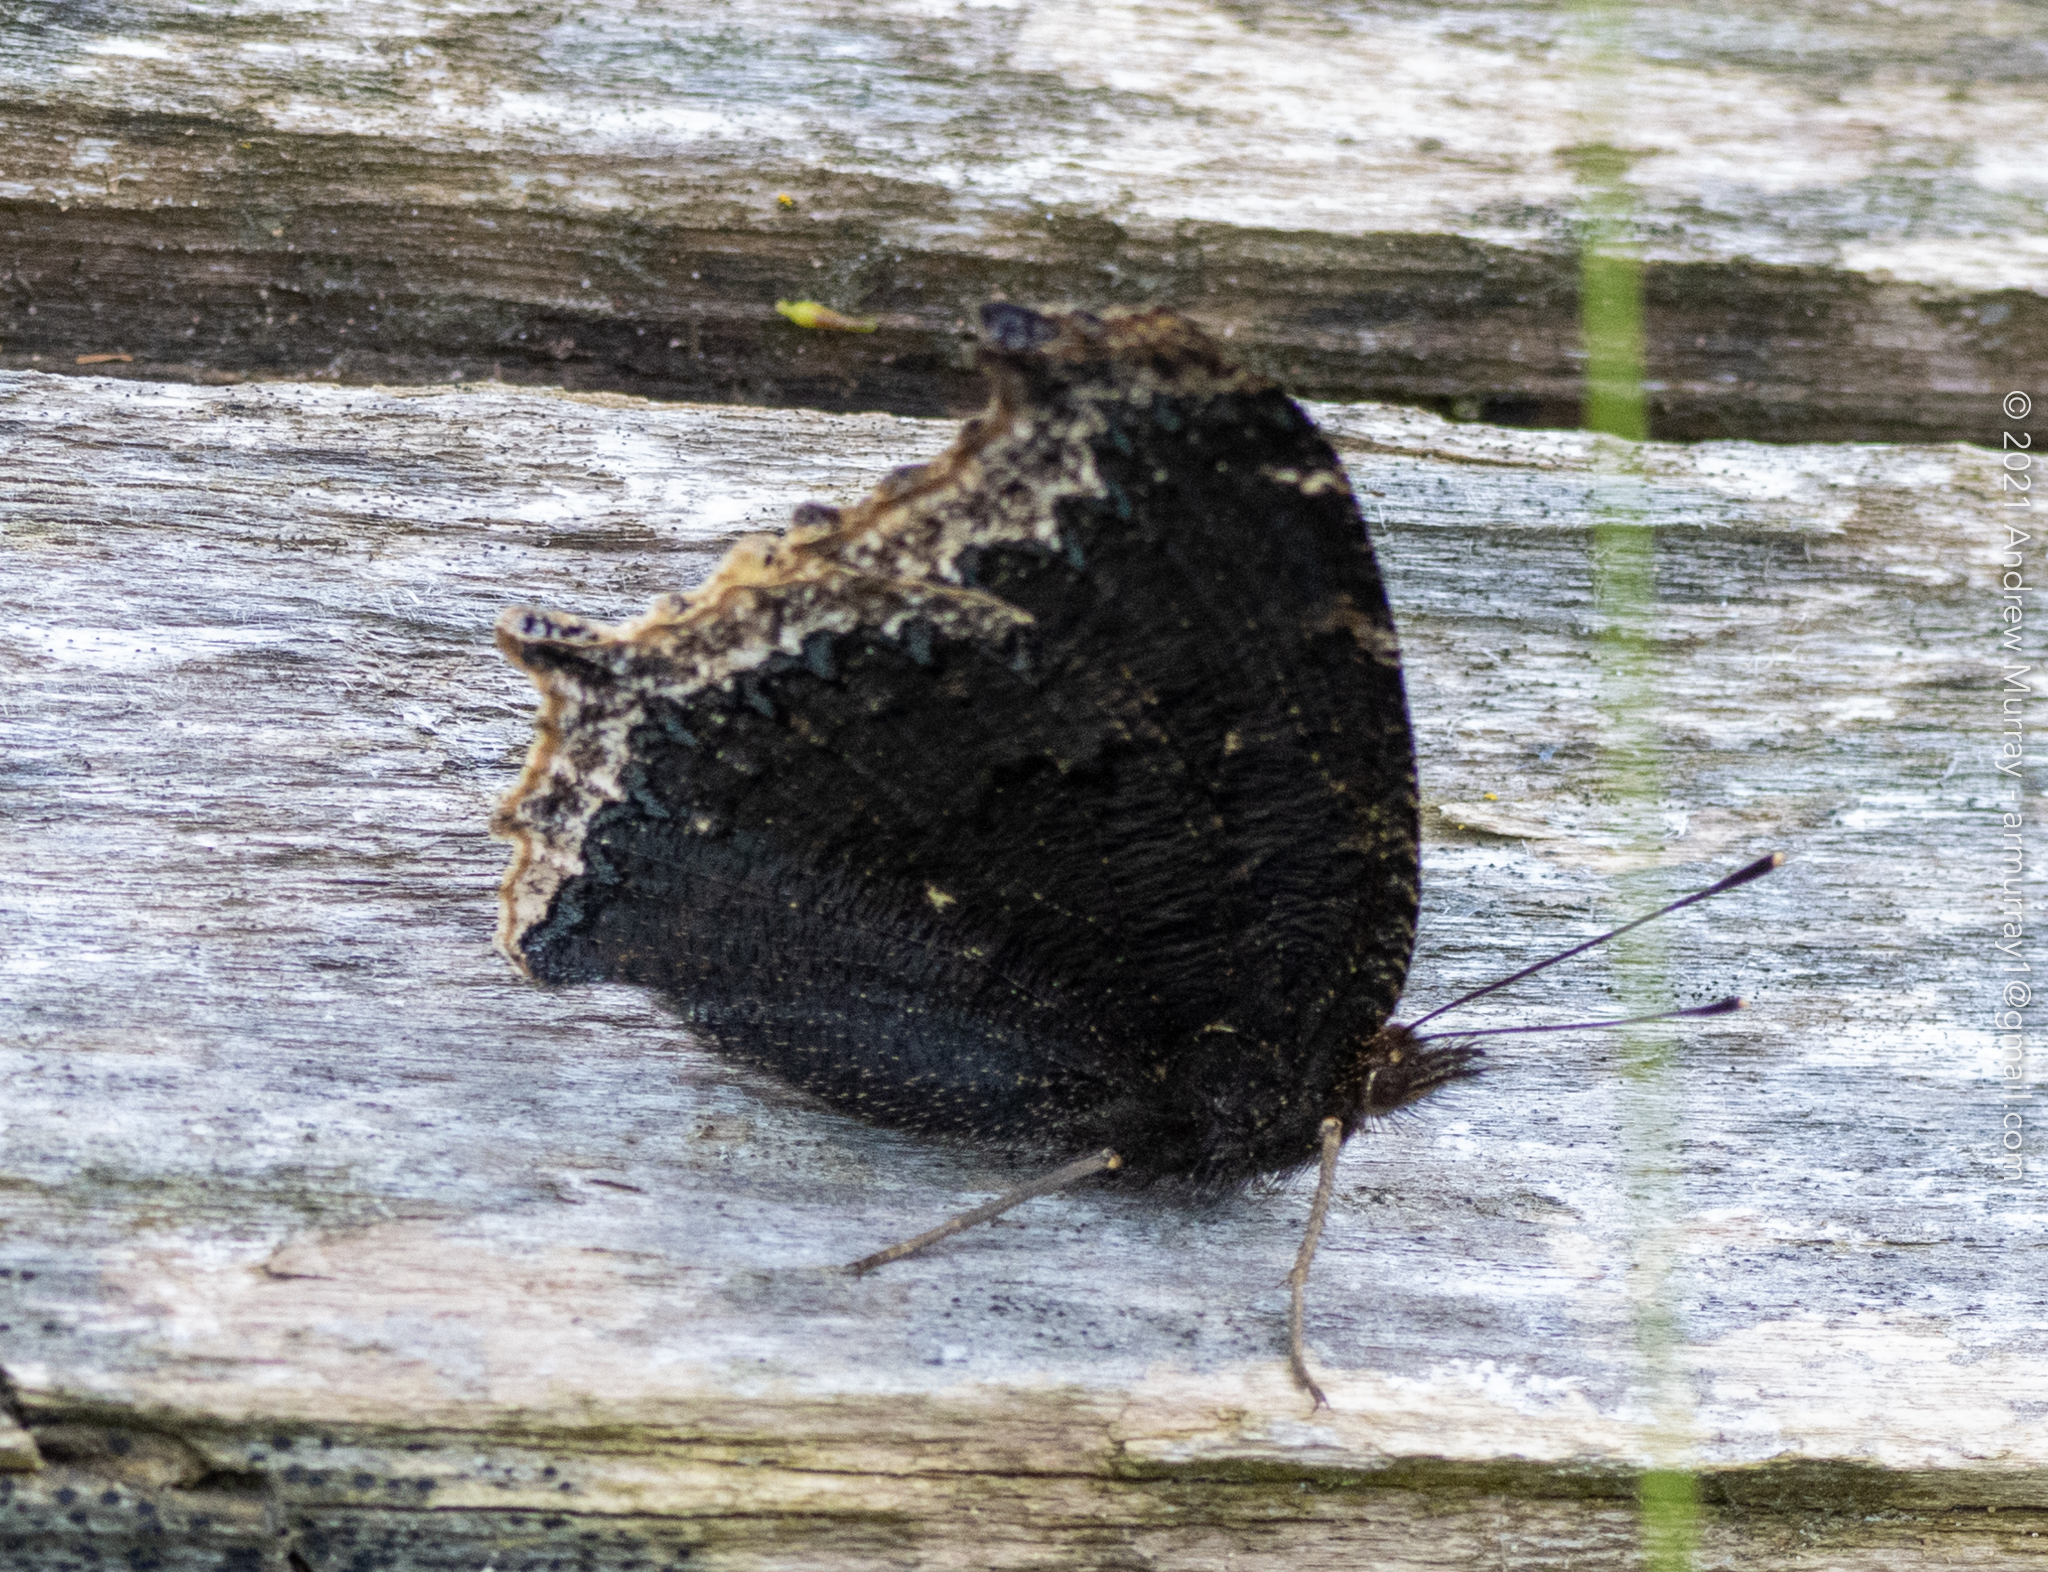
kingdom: Animalia
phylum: Arthropoda
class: Insecta
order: Lepidoptera
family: Nymphalidae
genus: Nymphalis
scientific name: Nymphalis antiopa
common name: Camberwell beauty
